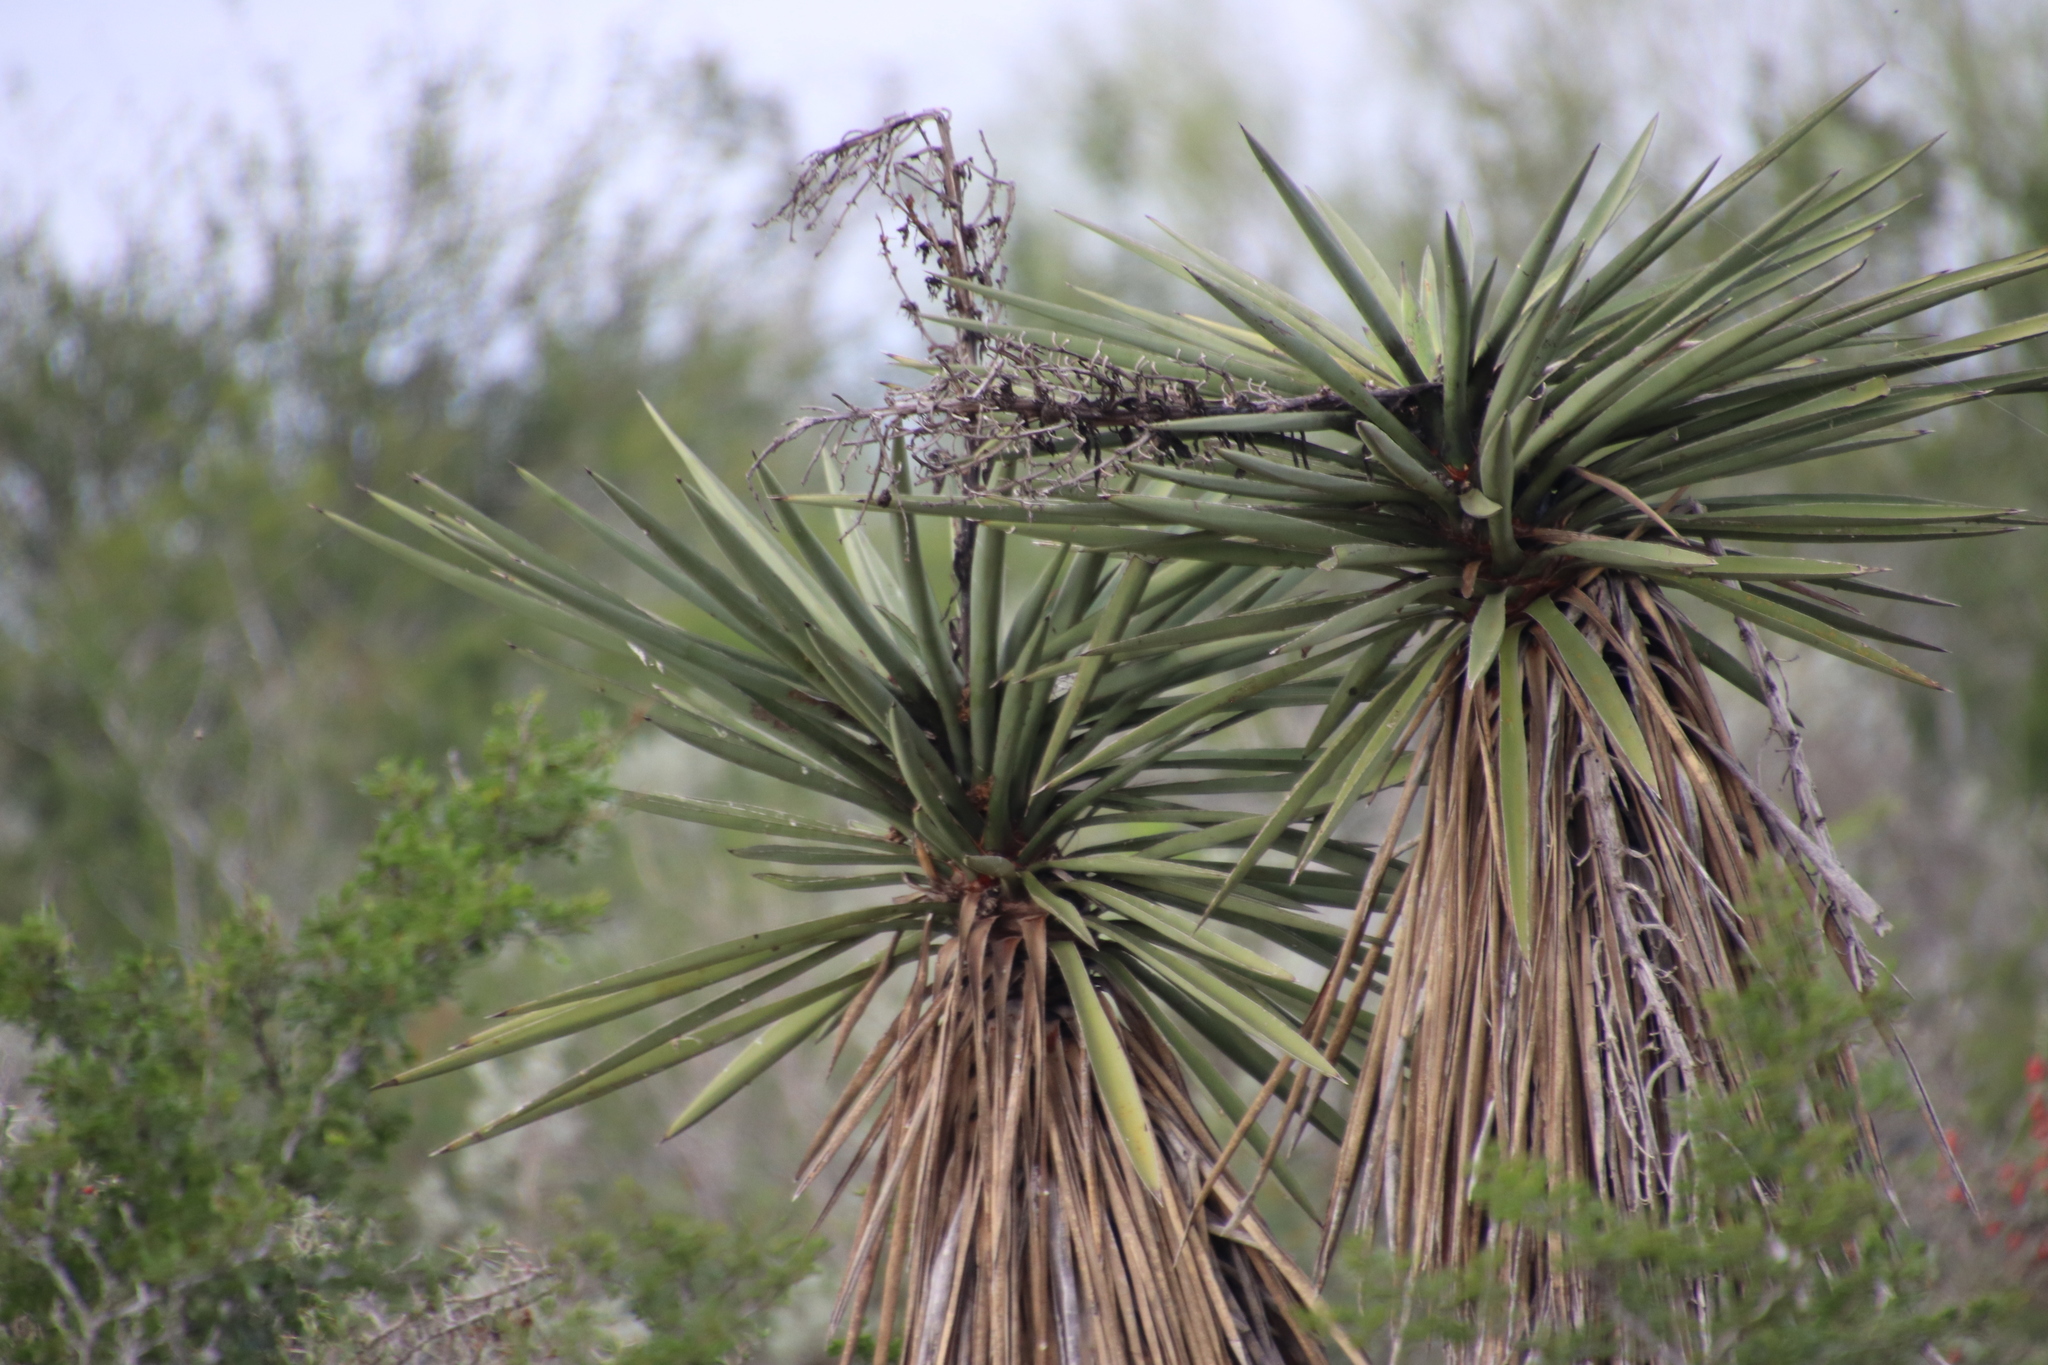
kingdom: Plantae
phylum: Tracheophyta
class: Liliopsida
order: Asparagales
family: Asparagaceae
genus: Yucca
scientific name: Yucca treculiana
